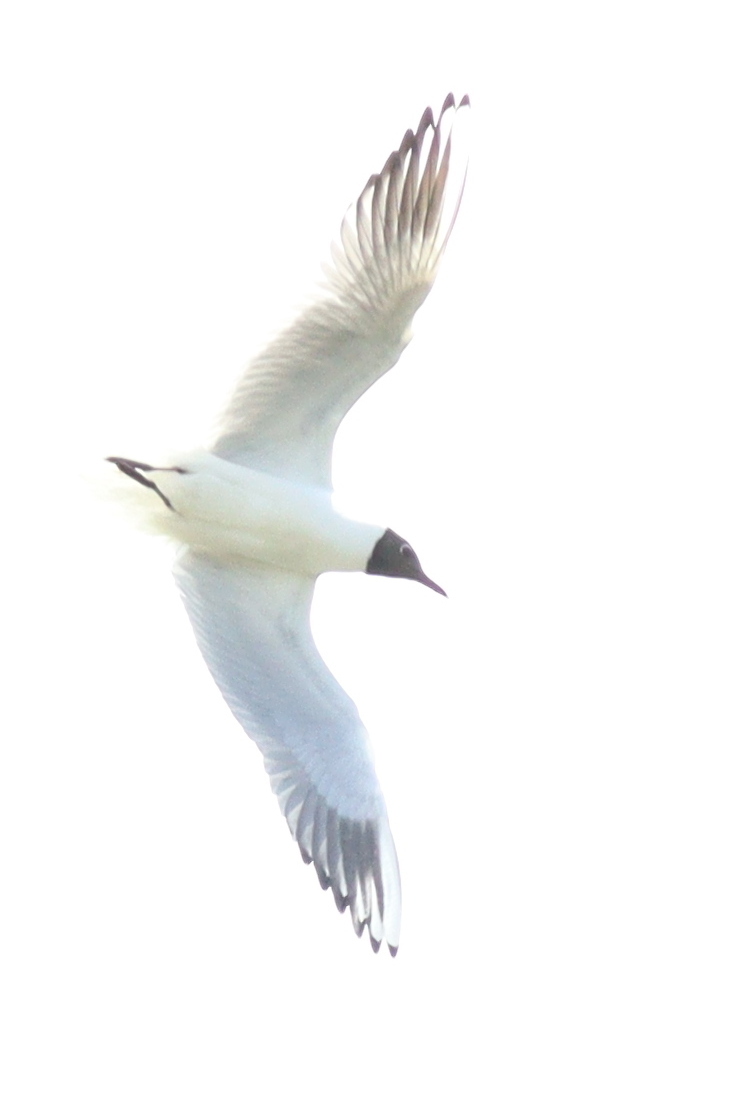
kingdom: Animalia
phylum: Chordata
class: Aves
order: Charadriiformes
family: Laridae
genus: Chroicocephalus
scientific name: Chroicocephalus ridibundus
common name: Black-headed gull
